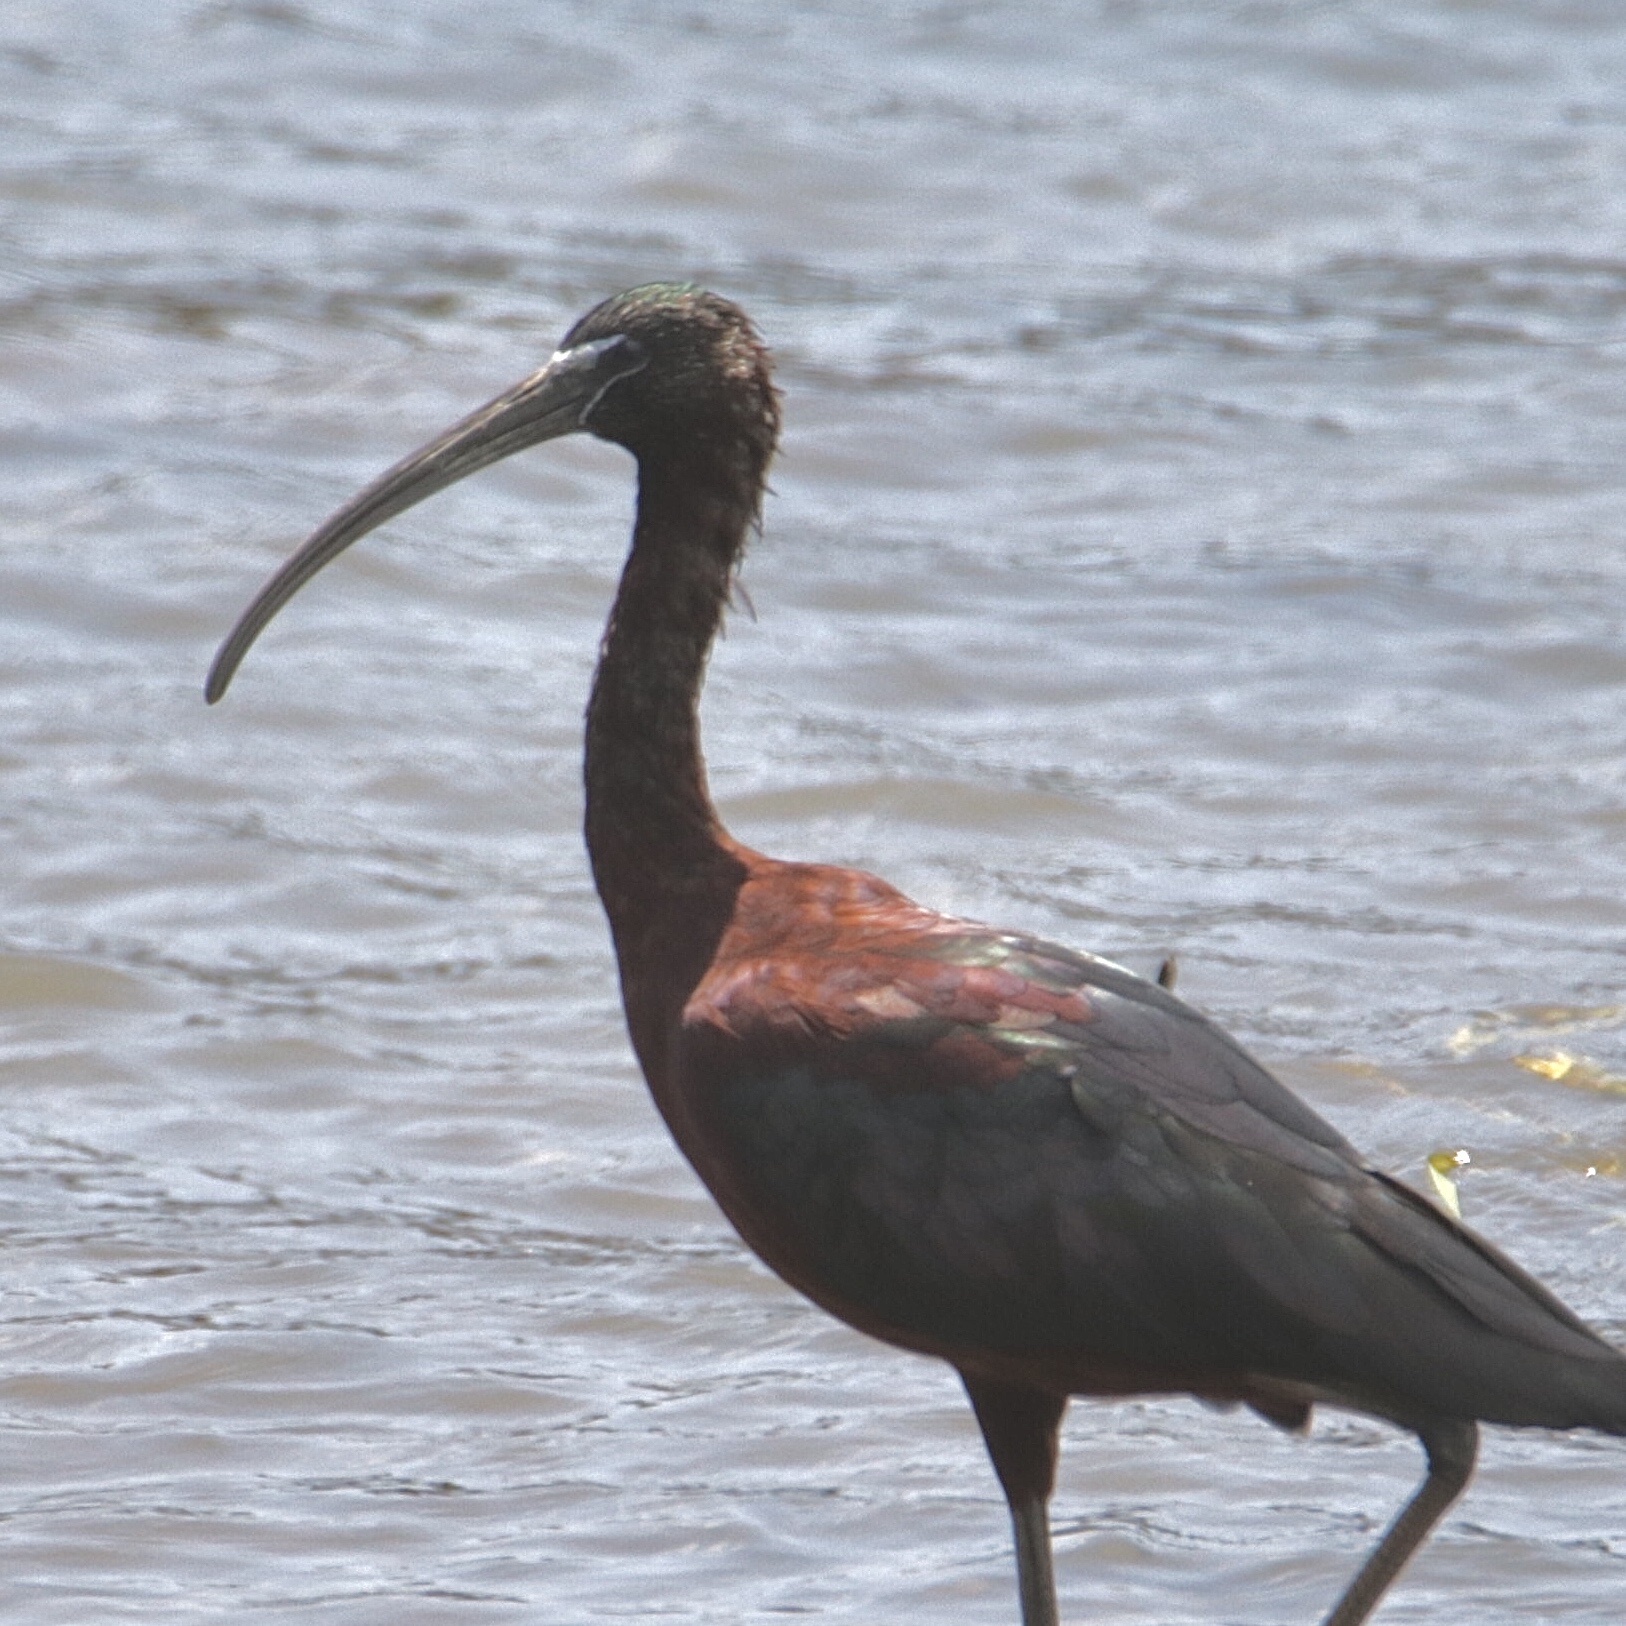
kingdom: Animalia
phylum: Chordata
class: Aves
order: Pelecaniformes
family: Threskiornithidae
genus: Plegadis
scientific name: Plegadis falcinellus
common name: Glossy ibis
